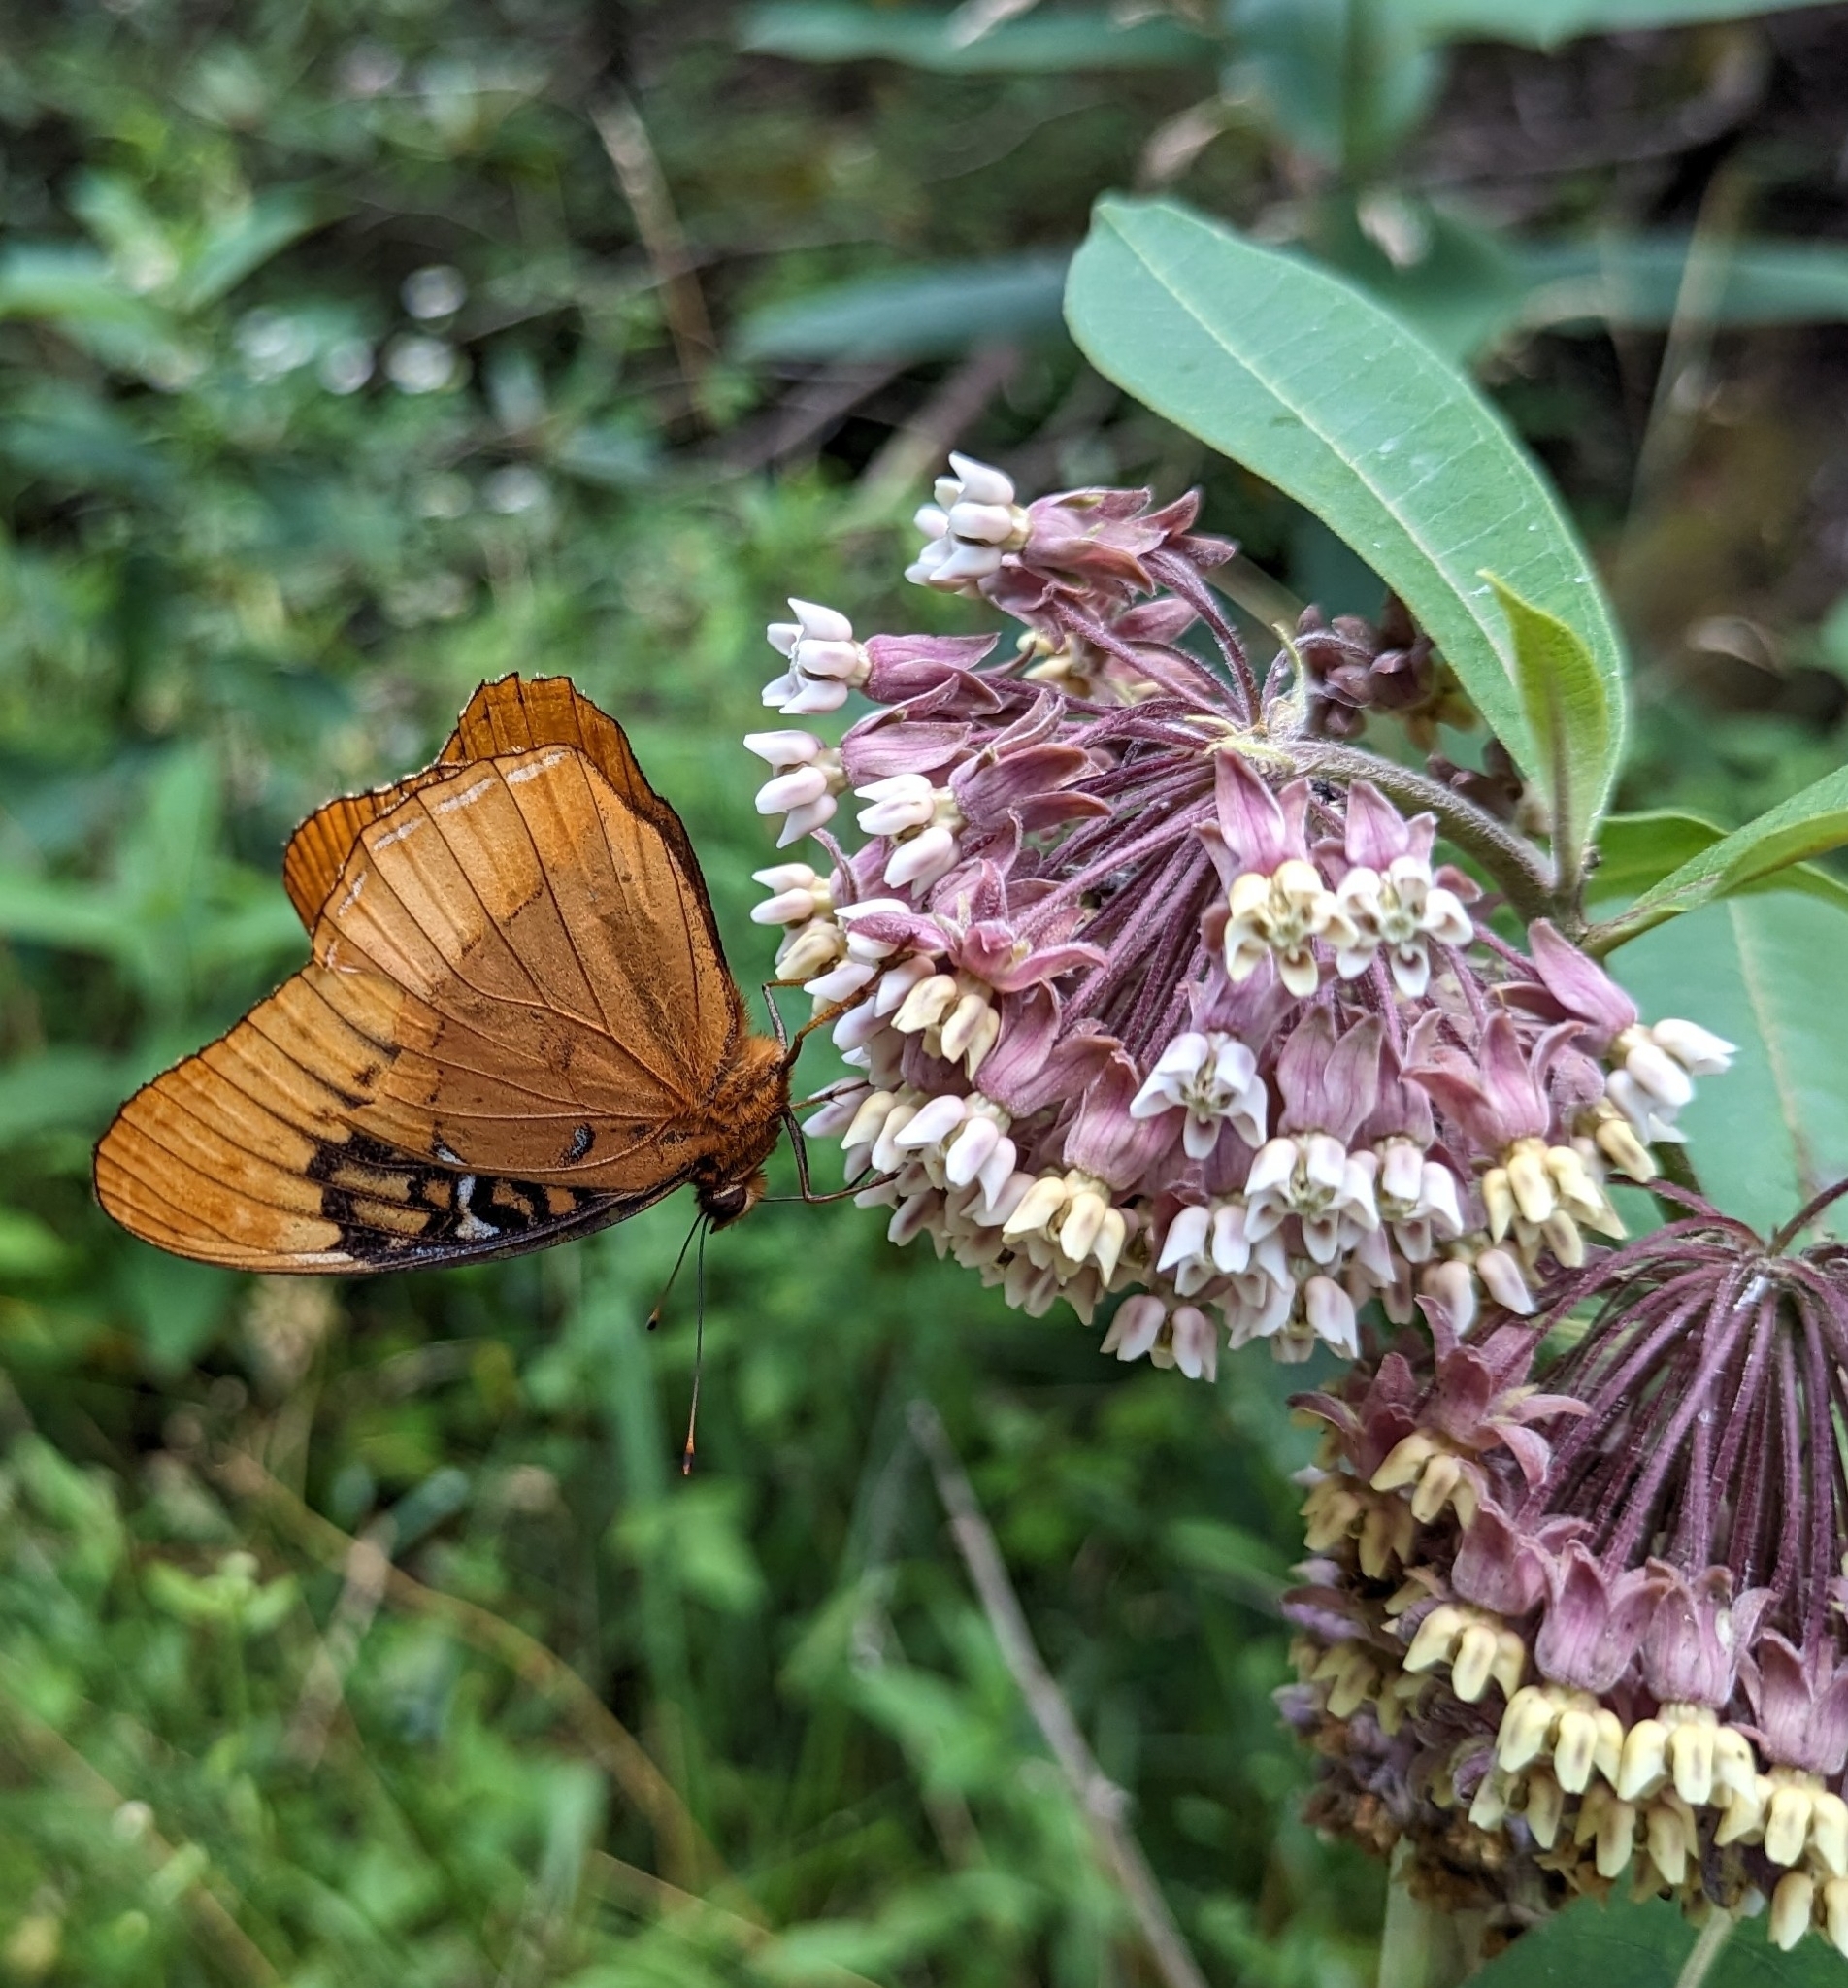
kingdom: Animalia
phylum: Arthropoda
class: Insecta
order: Lepidoptera
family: Nymphalidae
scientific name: Nymphalidae
